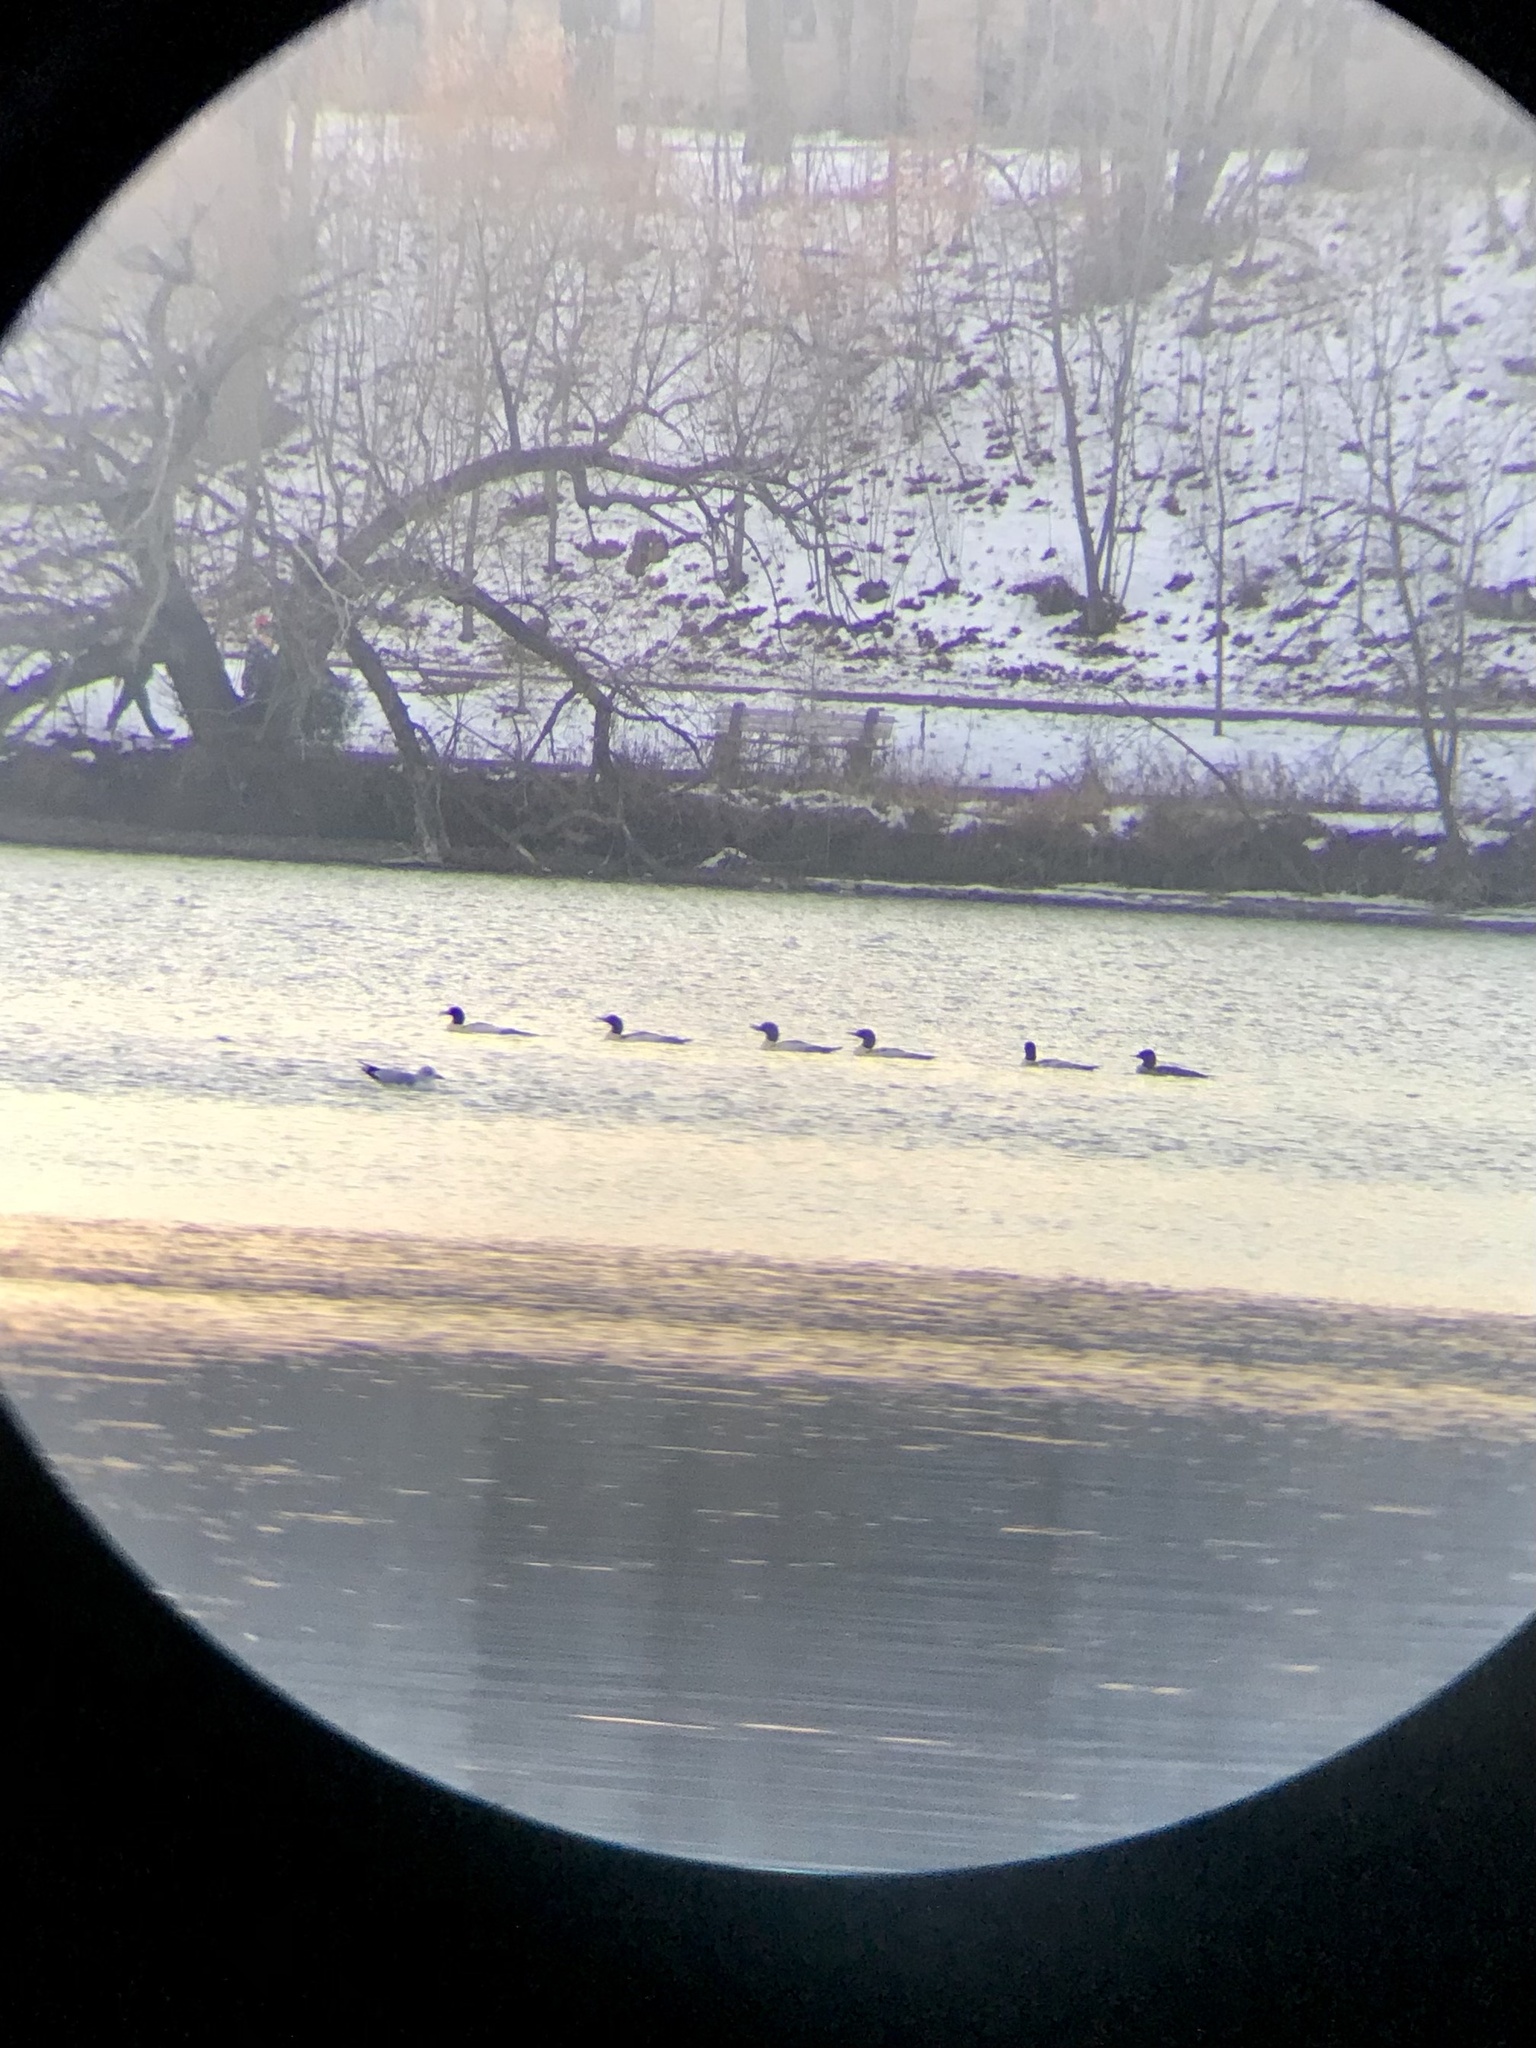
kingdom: Animalia
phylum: Chordata
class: Aves
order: Anseriformes
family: Anatidae
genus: Mergus
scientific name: Mergus merganser
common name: Common merganser
